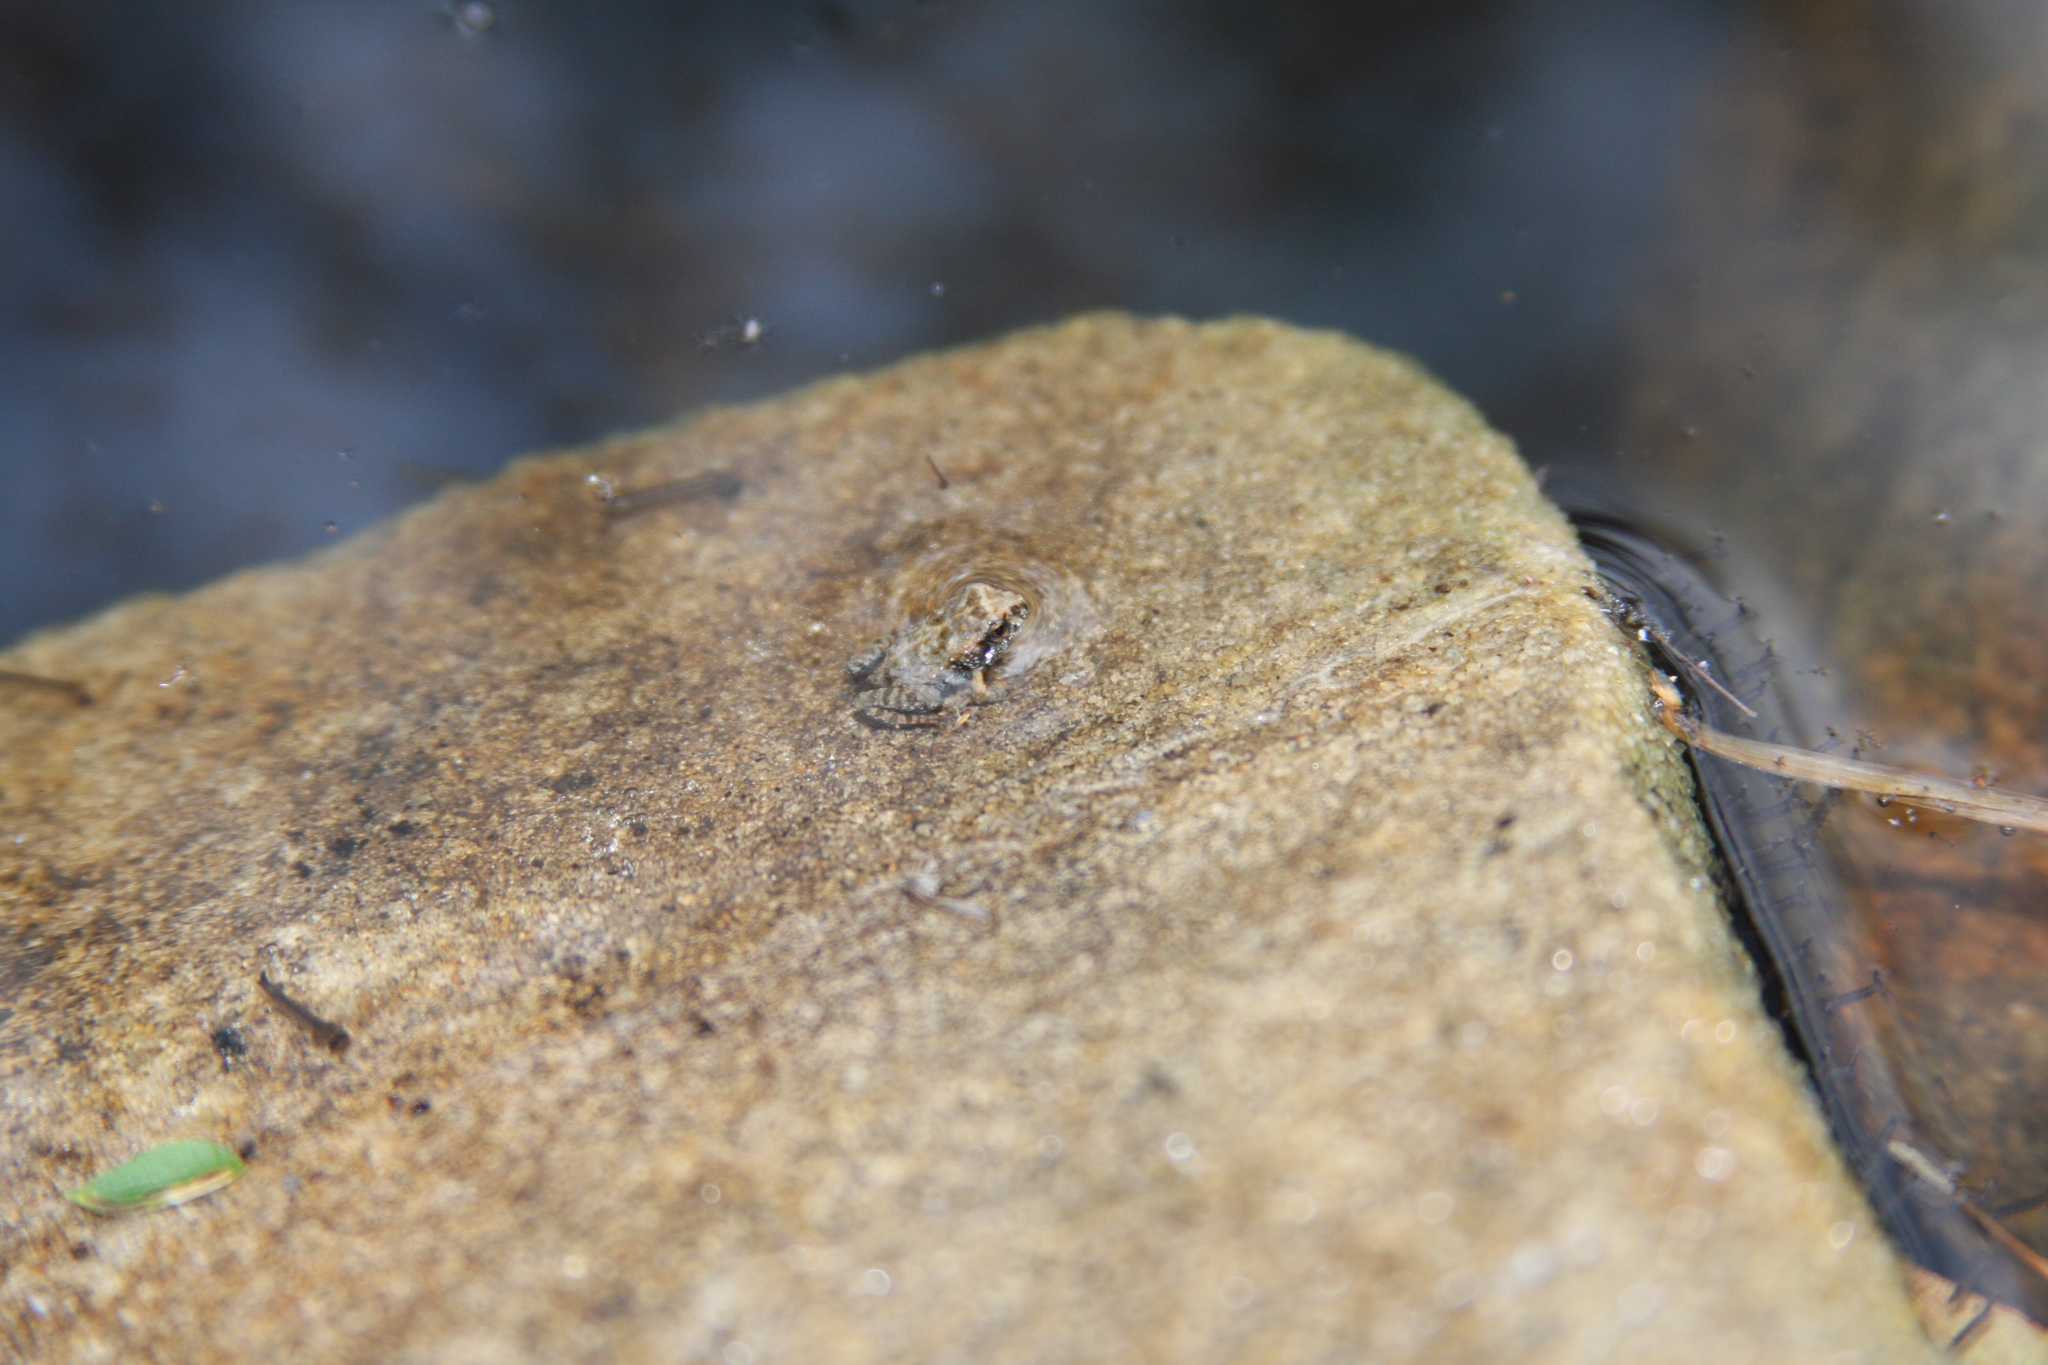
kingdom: Animalia
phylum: Chordata
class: Amphibia
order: Anura
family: Myobatrachidae
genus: Crinia
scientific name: Crinia signifera
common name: Brown froglet
